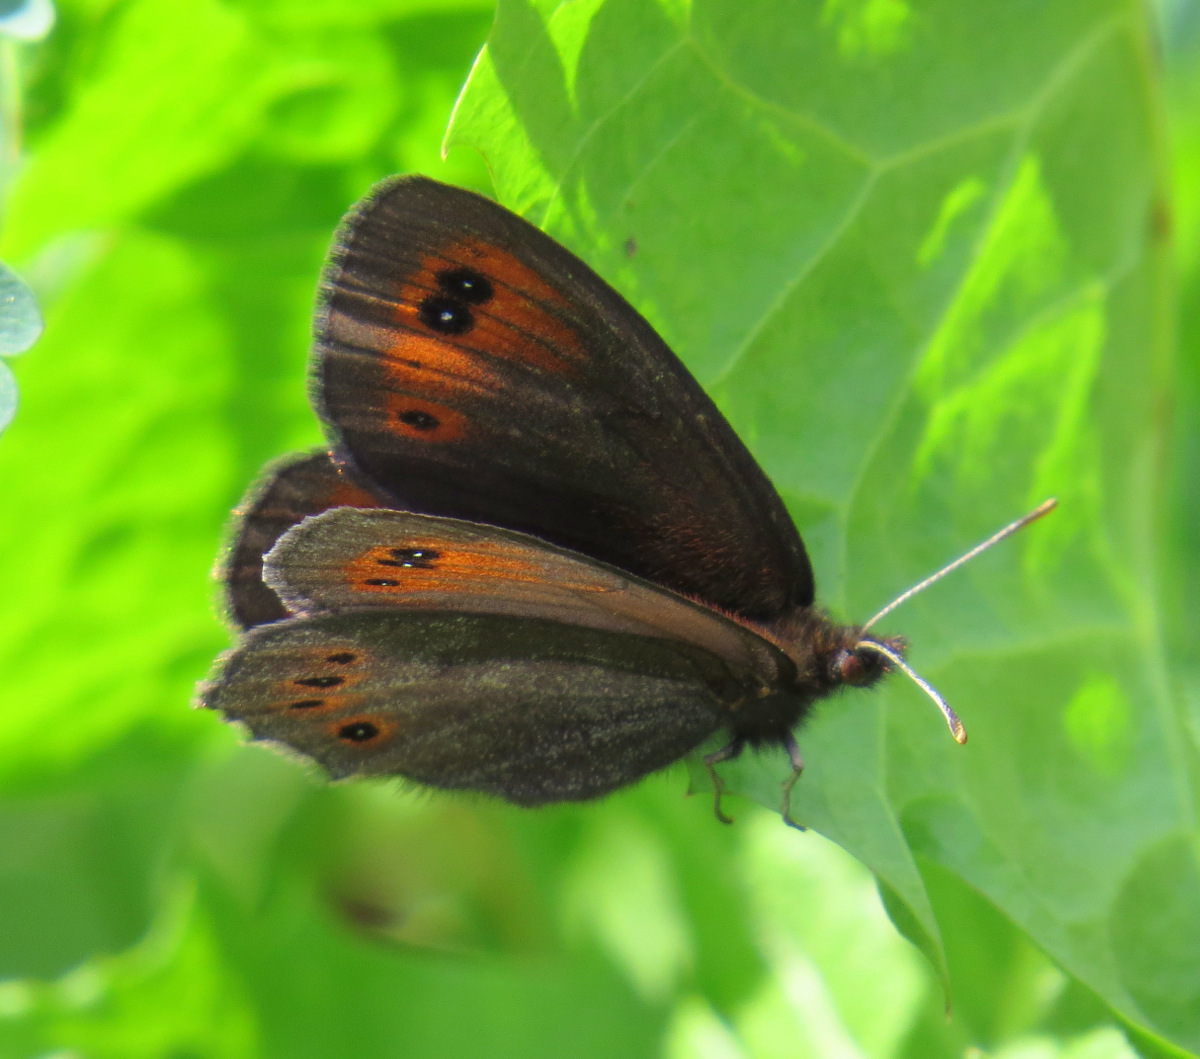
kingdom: Animalia
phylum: Arthropoda
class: Insecta
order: Lepidoptera
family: Nymphalidae
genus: Erebia
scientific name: Erebia epipsodea
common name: Common alpine
